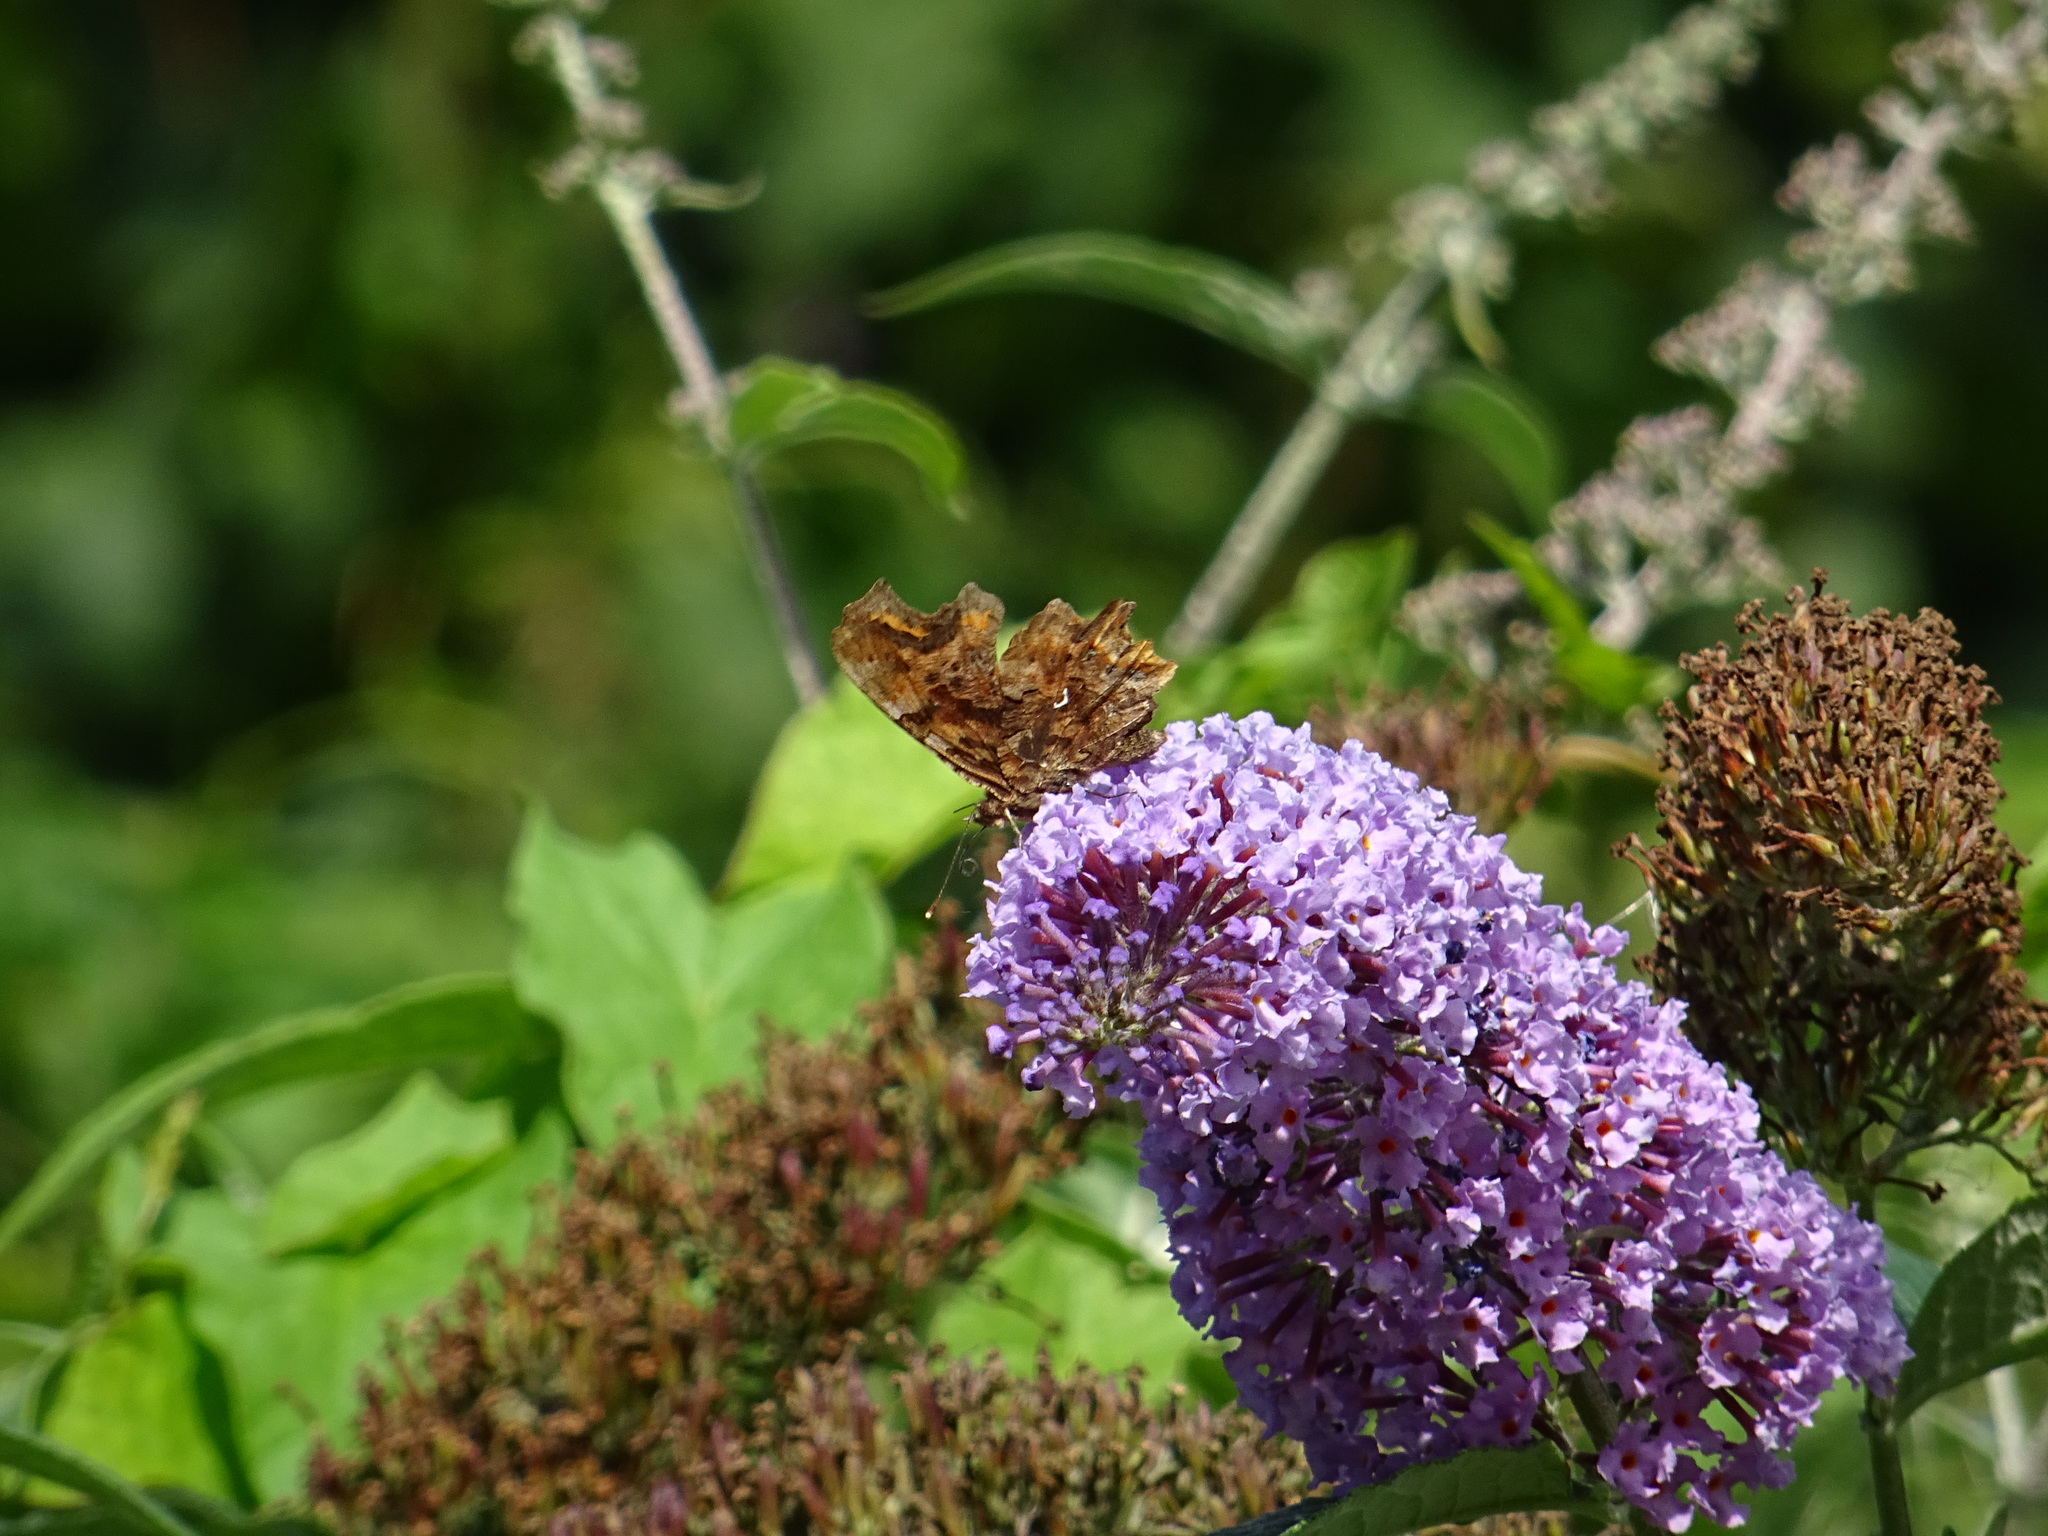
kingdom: Animalia
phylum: Arthropoda
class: Insecta
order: Lepidoptera
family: Nymphalidae
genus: Polygonia
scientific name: Polygonia c-album
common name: Comma
